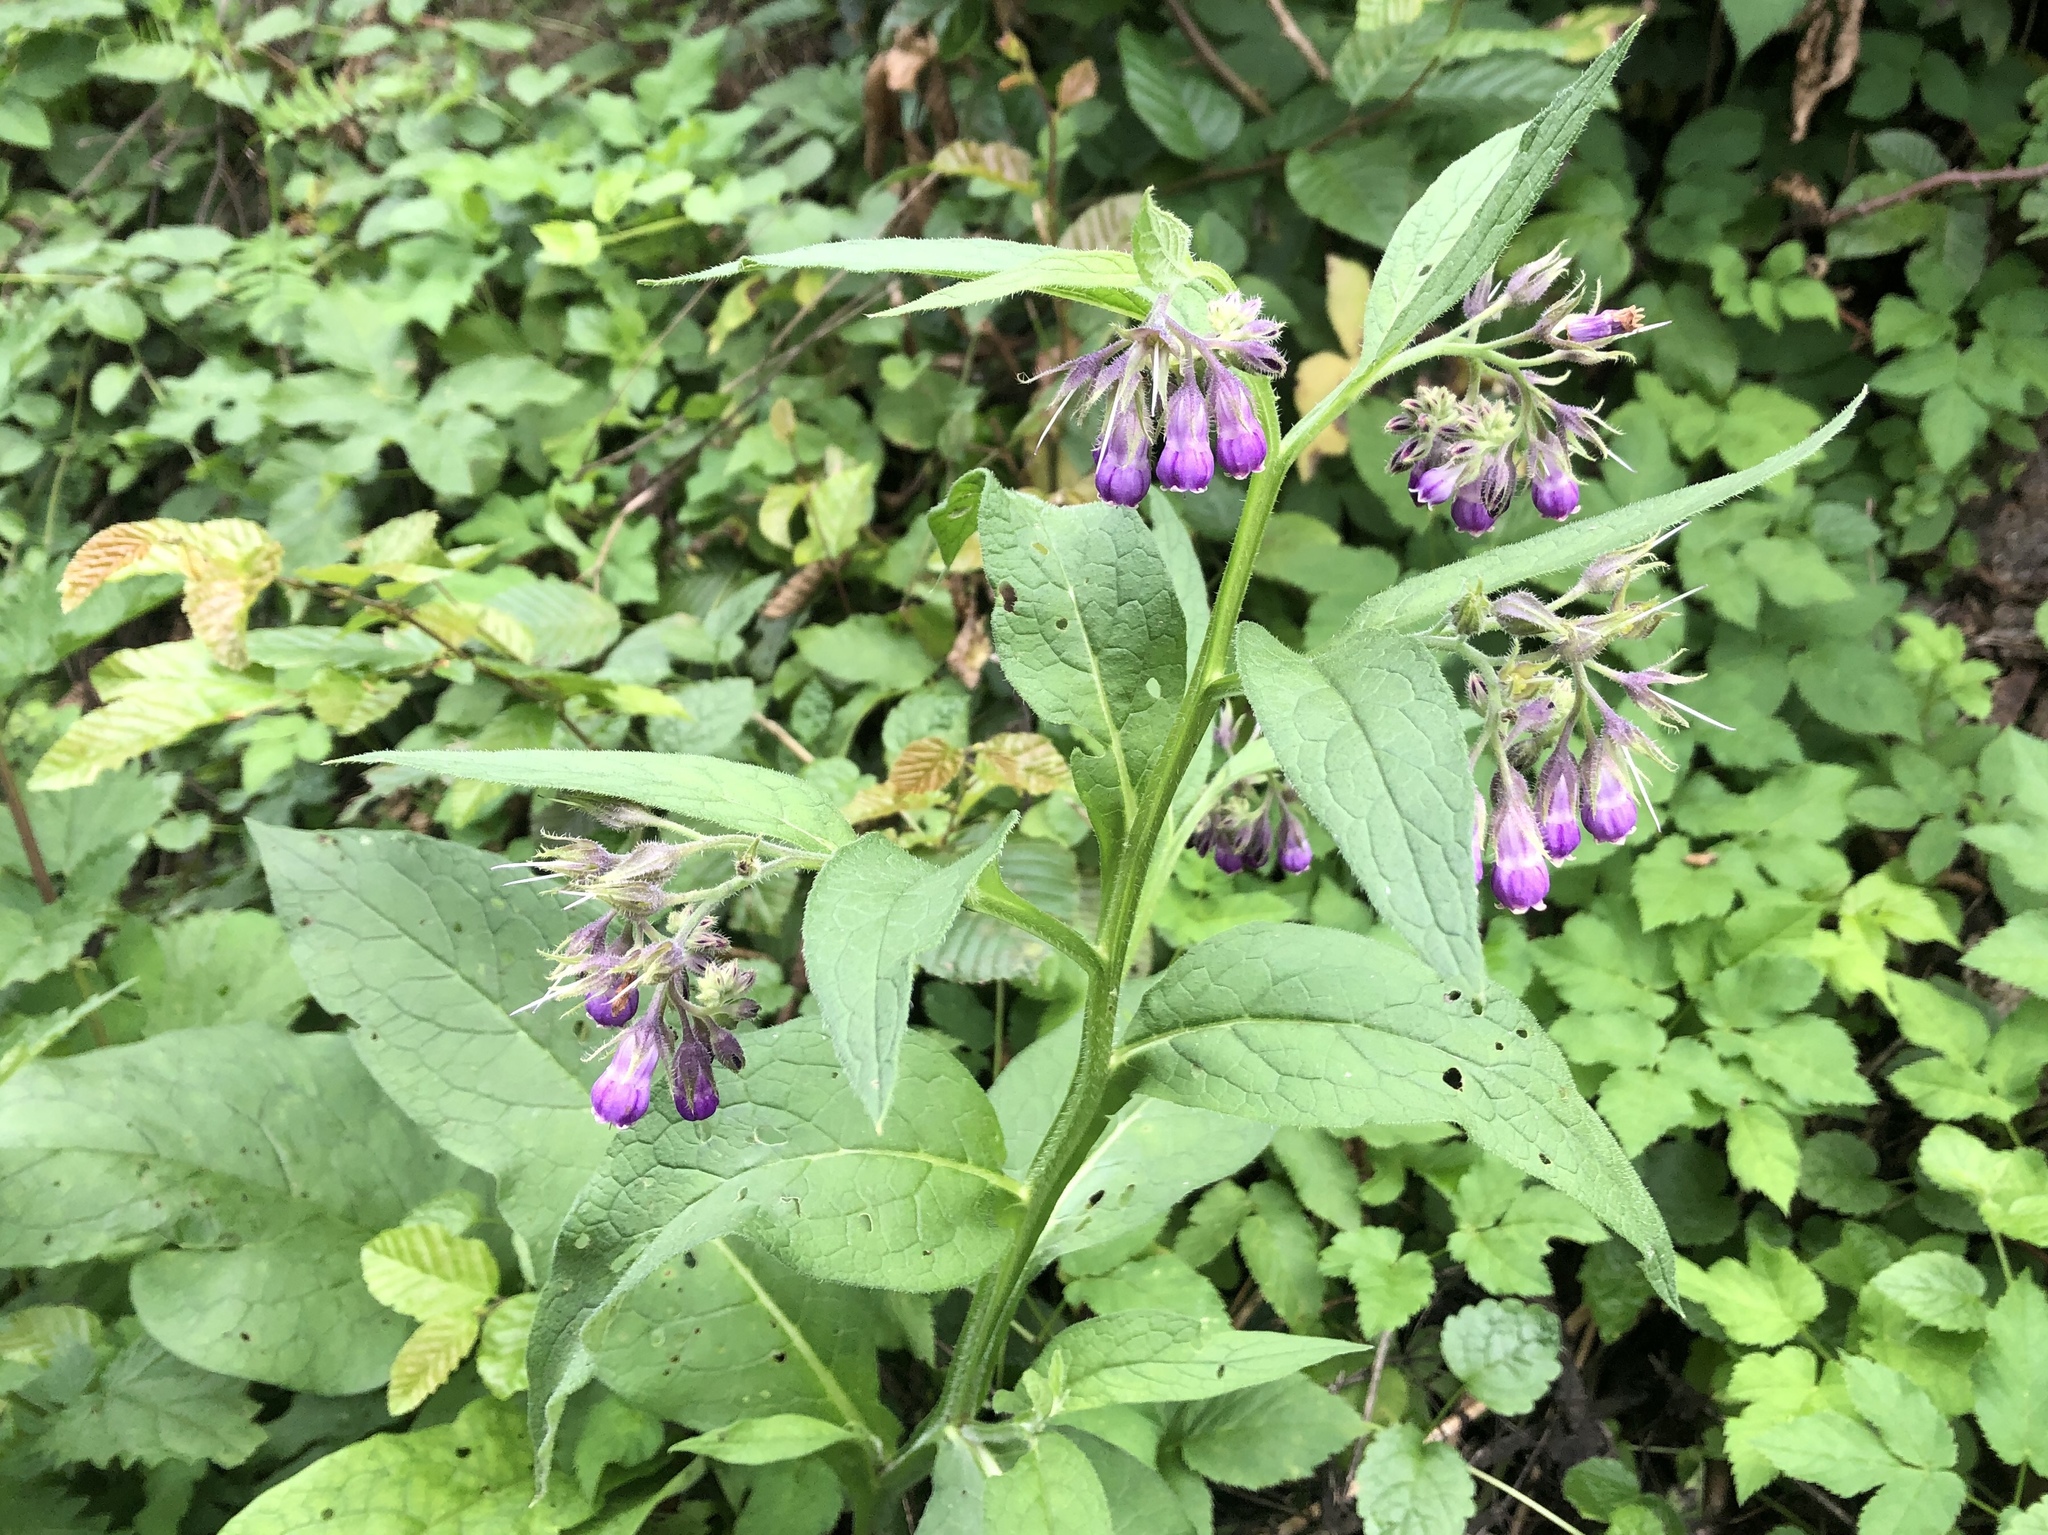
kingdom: Plantae
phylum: Tracheophyta
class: Magnoliopsida
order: Boraginales
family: Boraginaceae
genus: Symphytum
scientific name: Symphytum officinale
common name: Common comfrey
